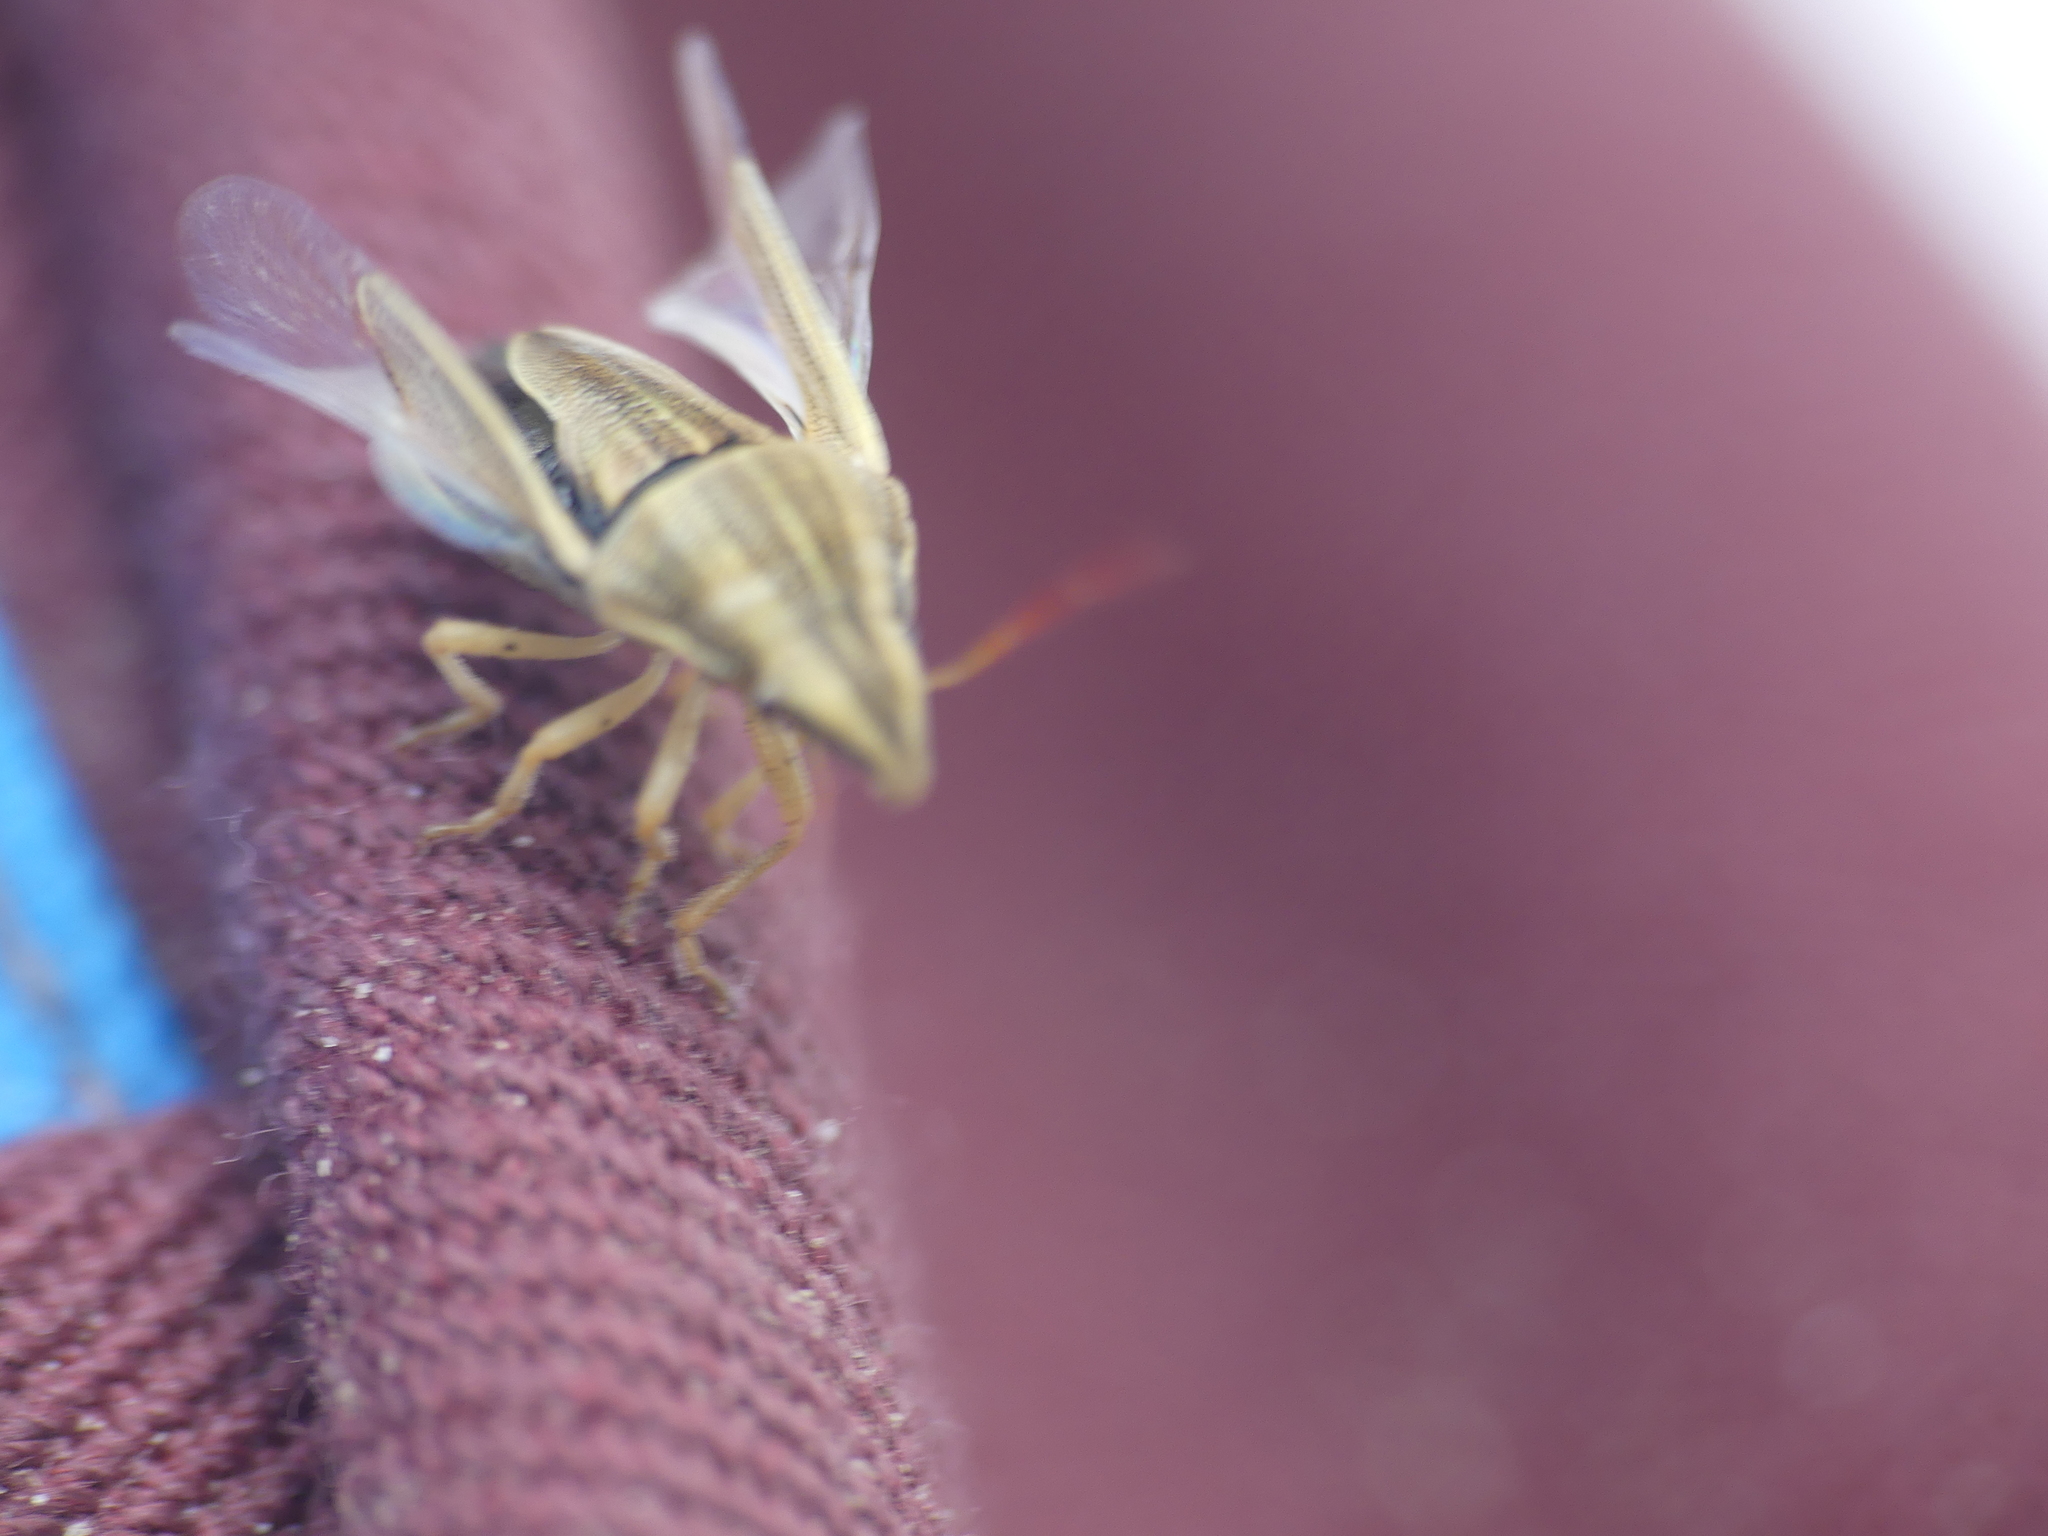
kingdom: Animalia
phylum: Arthropoda
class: Insecta
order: Hemiptera
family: Pentatomidae
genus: Aelia
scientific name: Aelia acuminata
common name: Bishop's mitre
